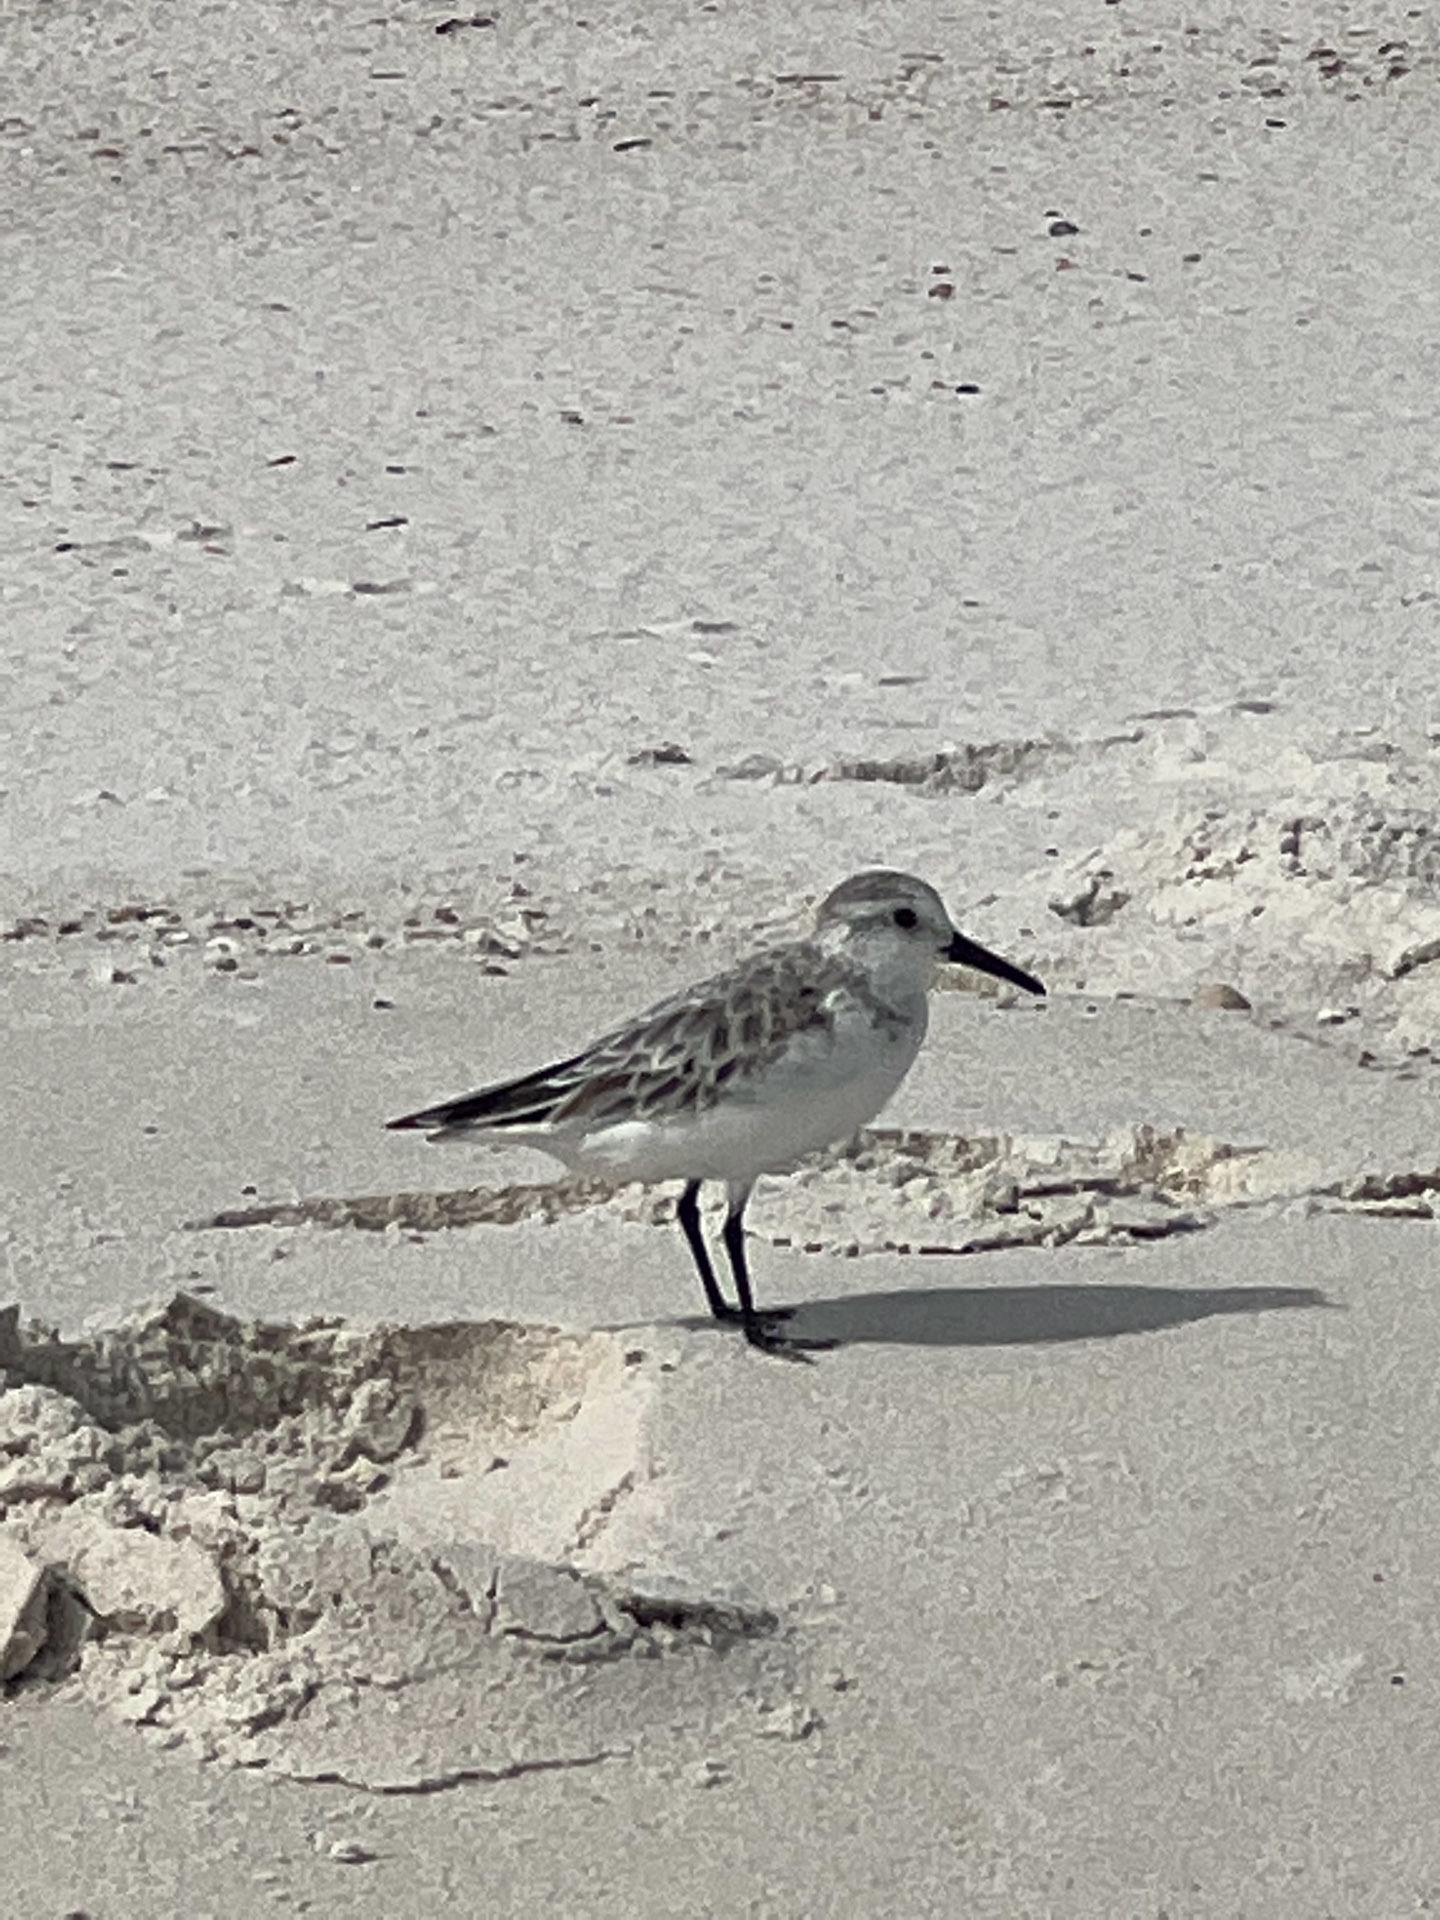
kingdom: Animalia
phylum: Chordata
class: Aves
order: Charadriiformes
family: Scolopacidae
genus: Calidris
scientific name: Calidris alba
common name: Sanderling
